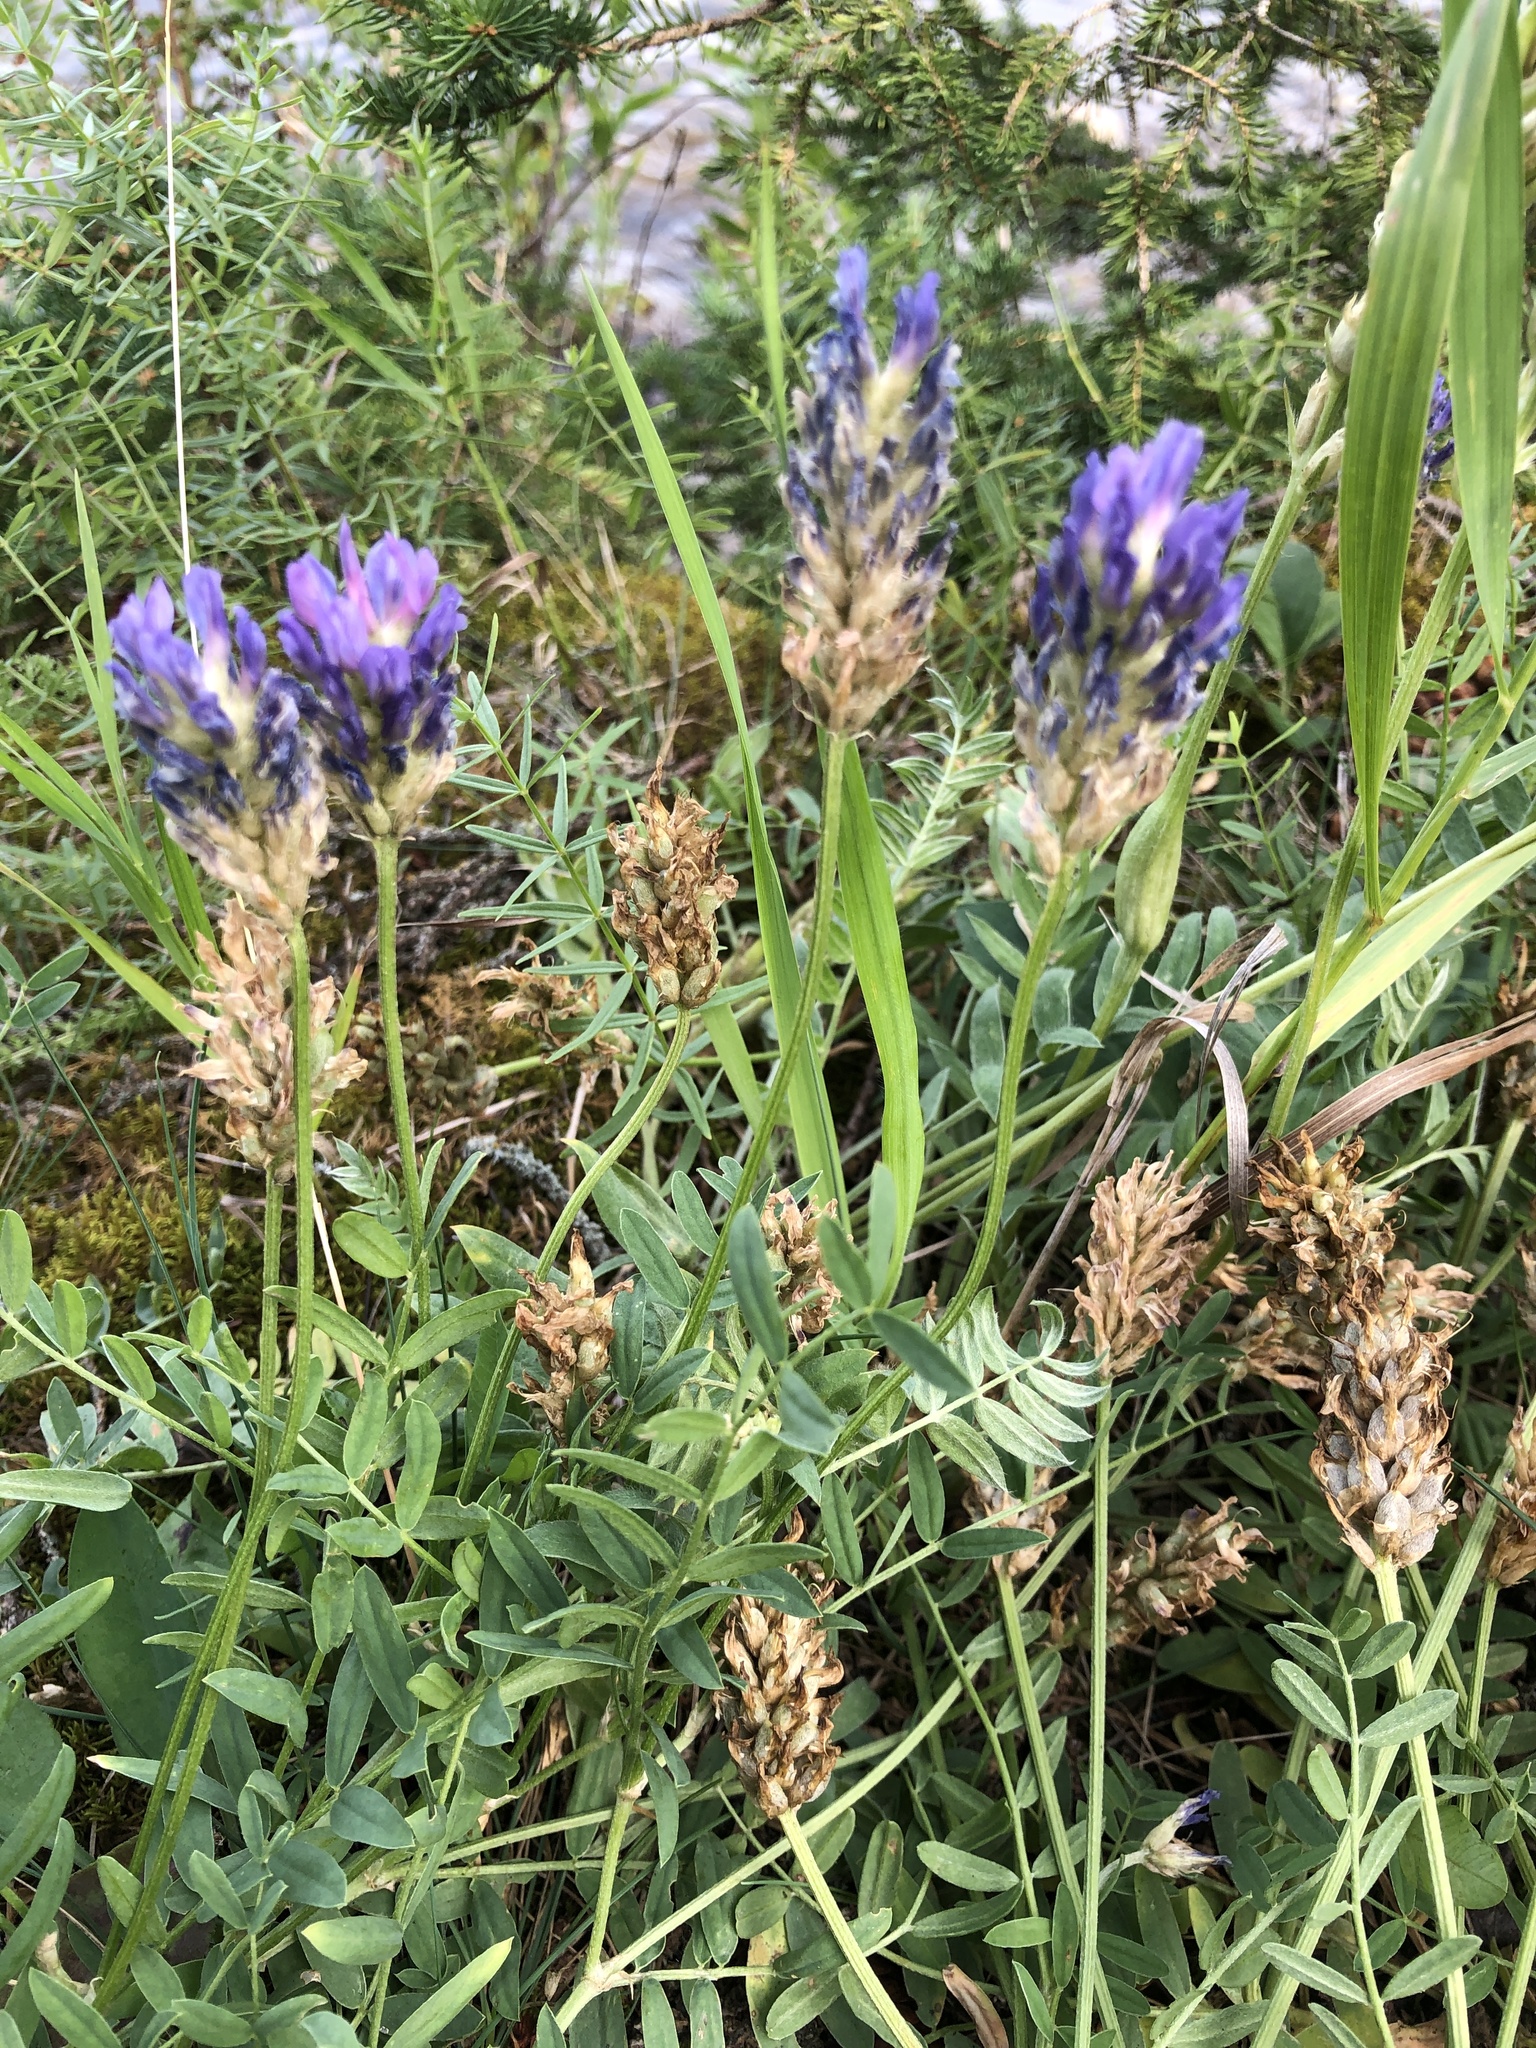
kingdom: Plantae
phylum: Tracheophyta
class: Magnoliopsida
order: Fabales
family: Fabaceae
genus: Astragalus
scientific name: Astragalus laxmannii
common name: Laxmann's milk-vetch
